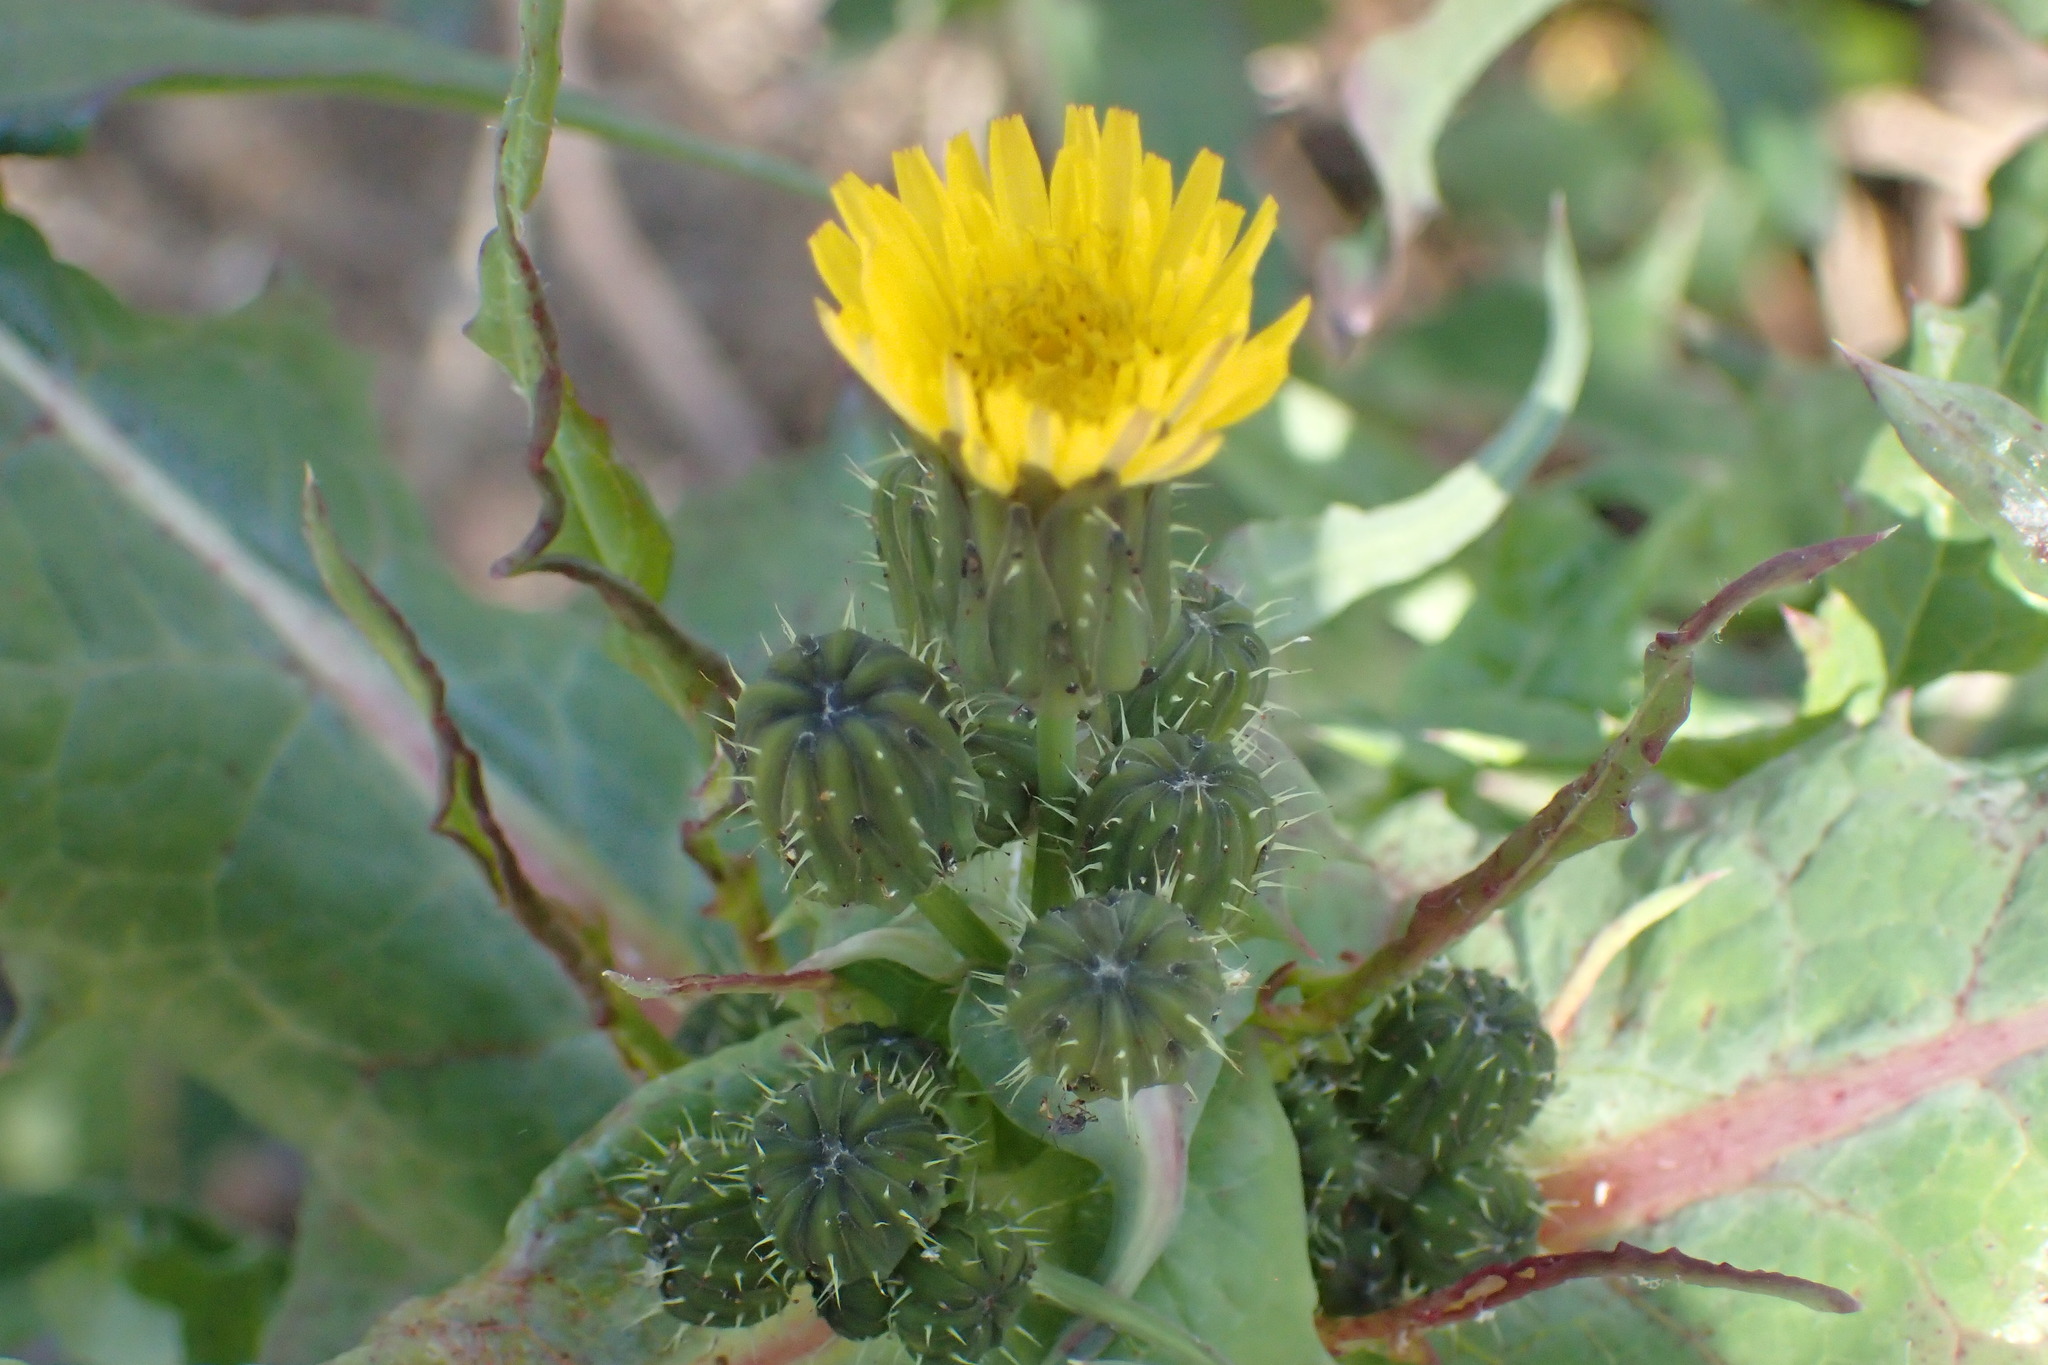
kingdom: Plantae
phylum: Tracheophyta
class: Magnoliopsida
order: Asterales
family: Asteraceae
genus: Sonchus
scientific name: Sonchus oleraceus
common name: Common sowthistle
